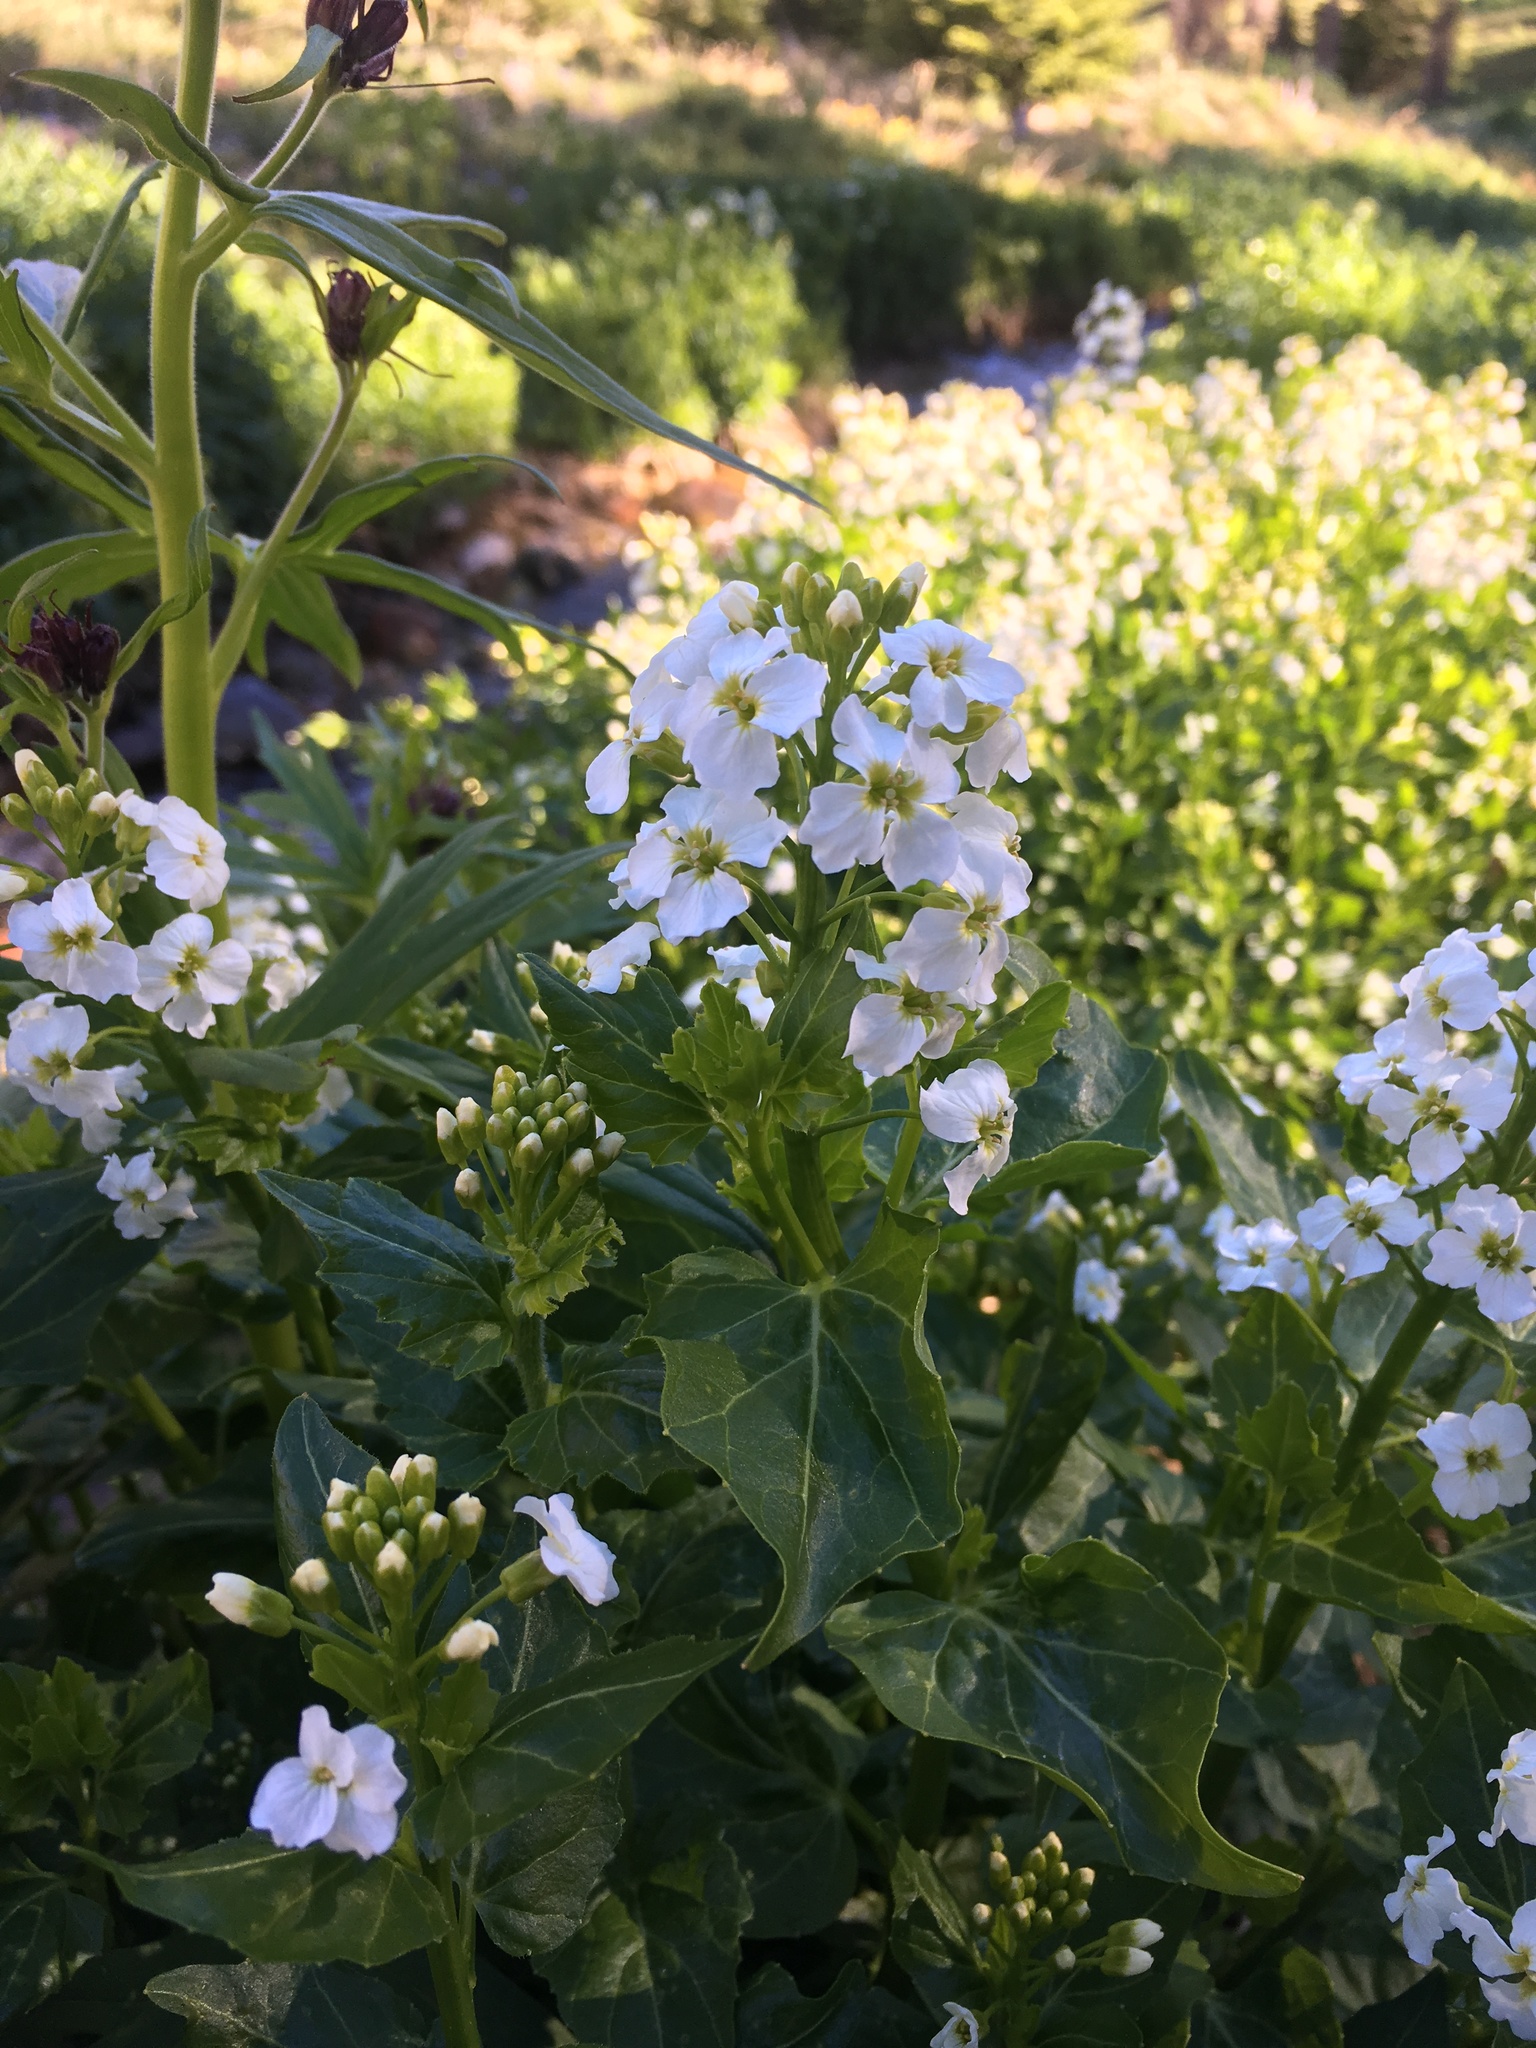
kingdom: Plantae
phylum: Tracheophyta
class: Magnoliopsida
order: Brassicales
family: Brassicaceae
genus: Cardamine
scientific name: Cardamine cordifolia
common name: Heart-leaf bittercress
